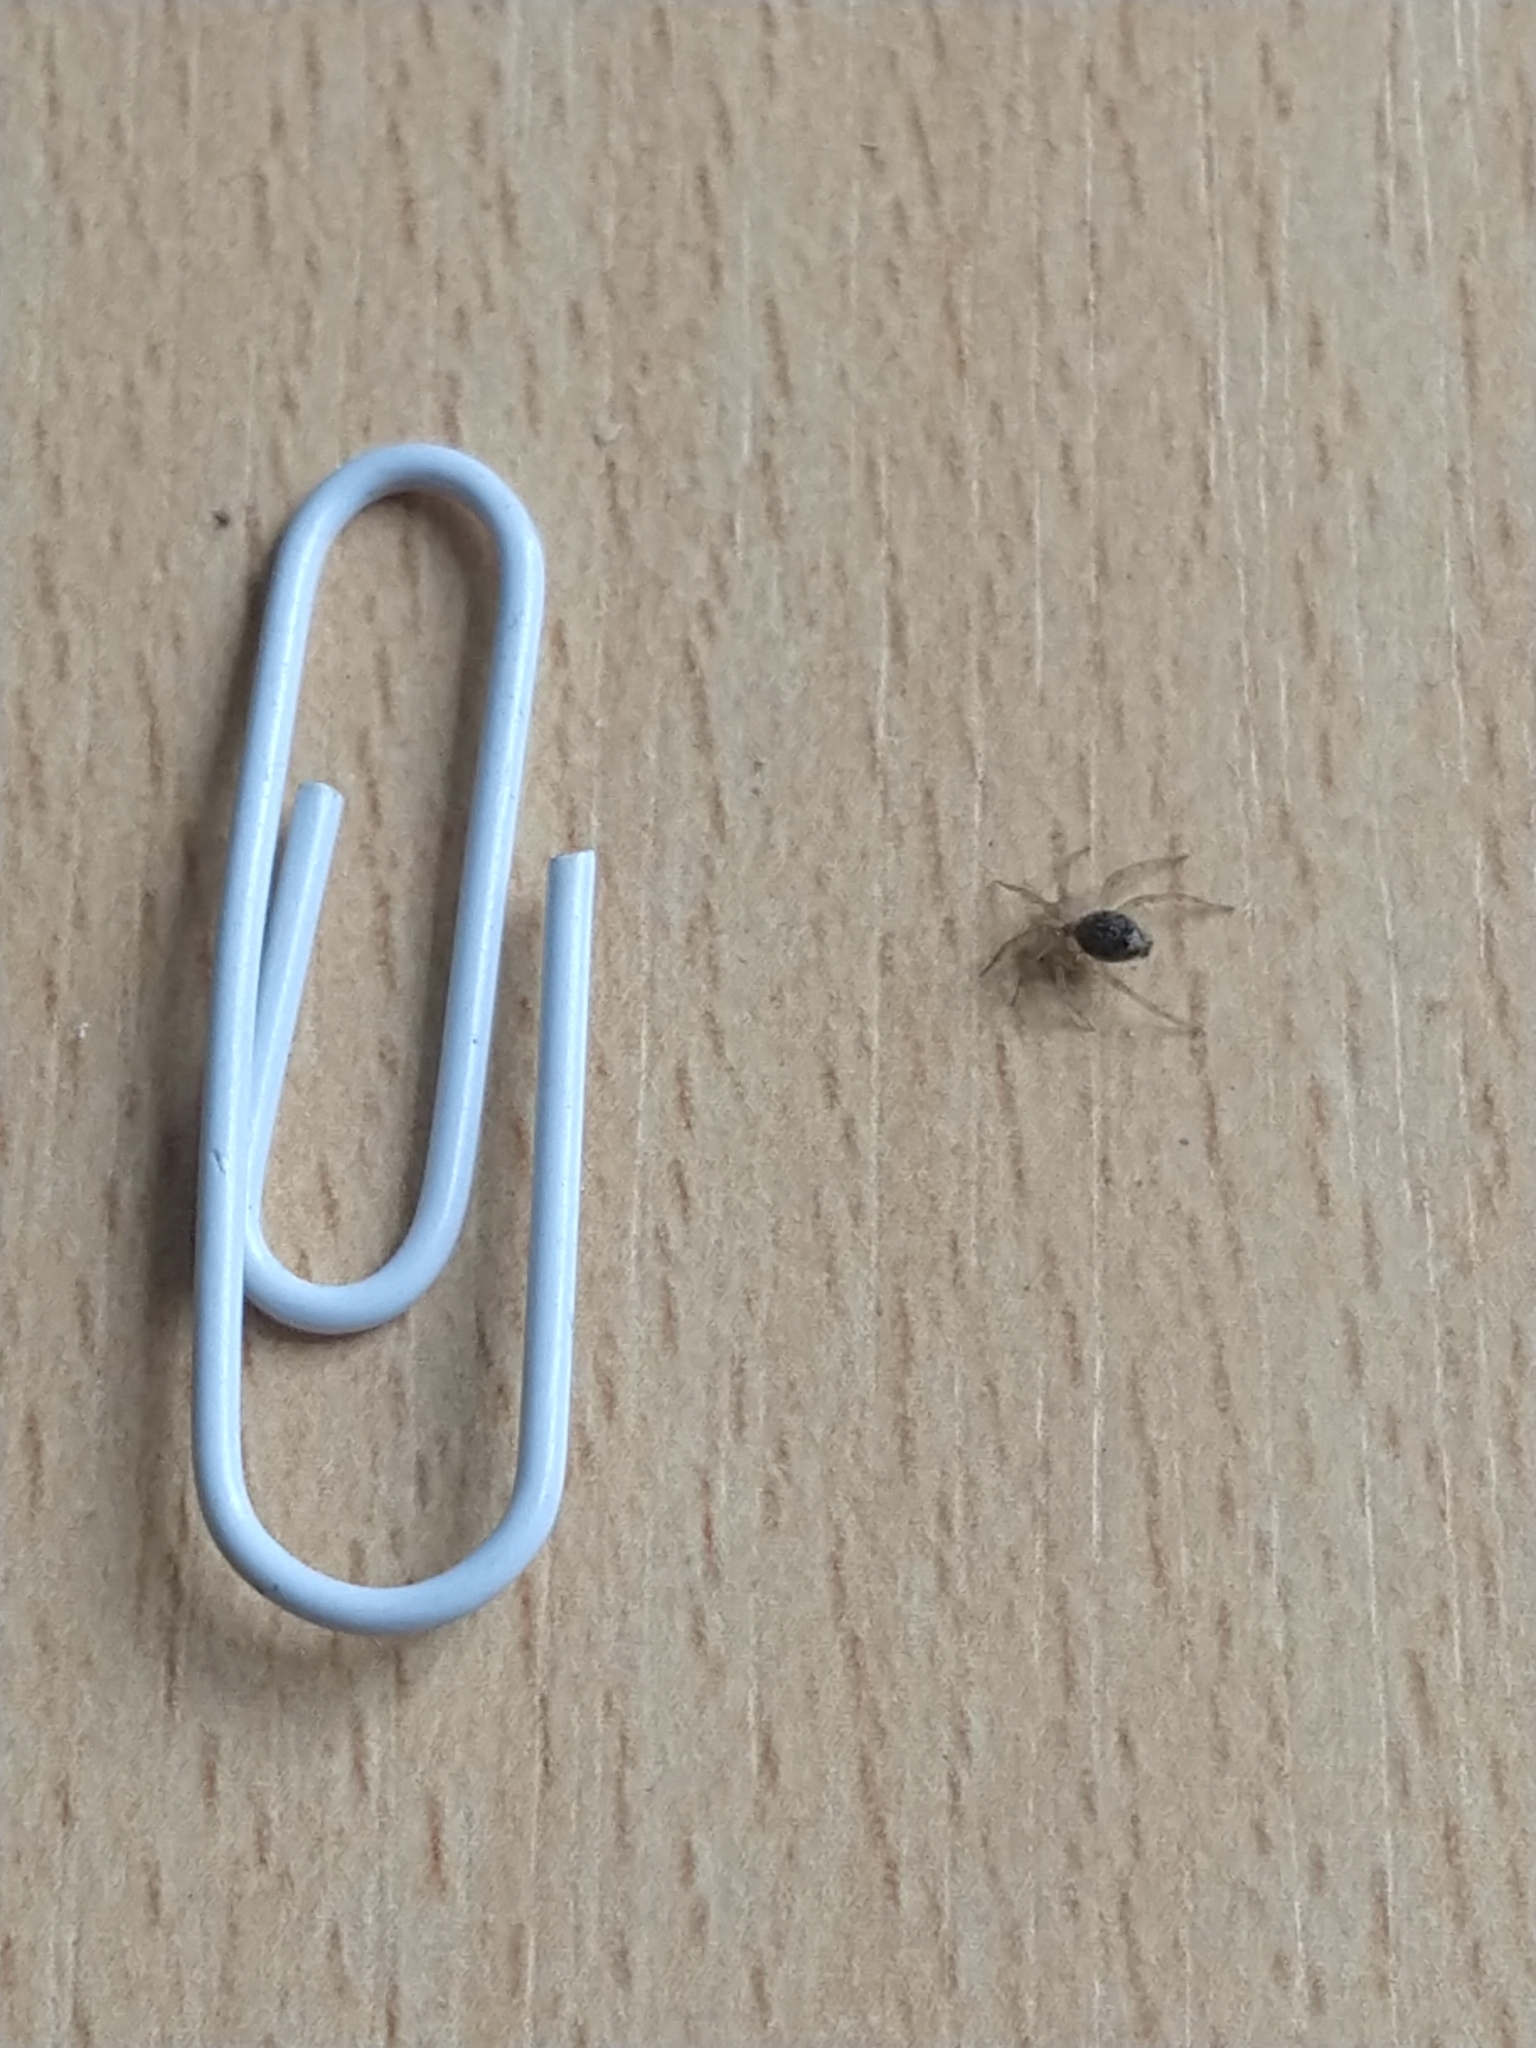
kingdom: Animalia
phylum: Arthropoda
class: Arachnida
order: Araneae
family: Oecobiidae
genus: Oecobius
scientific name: Oecobius navus
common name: Flatmesh weaver
